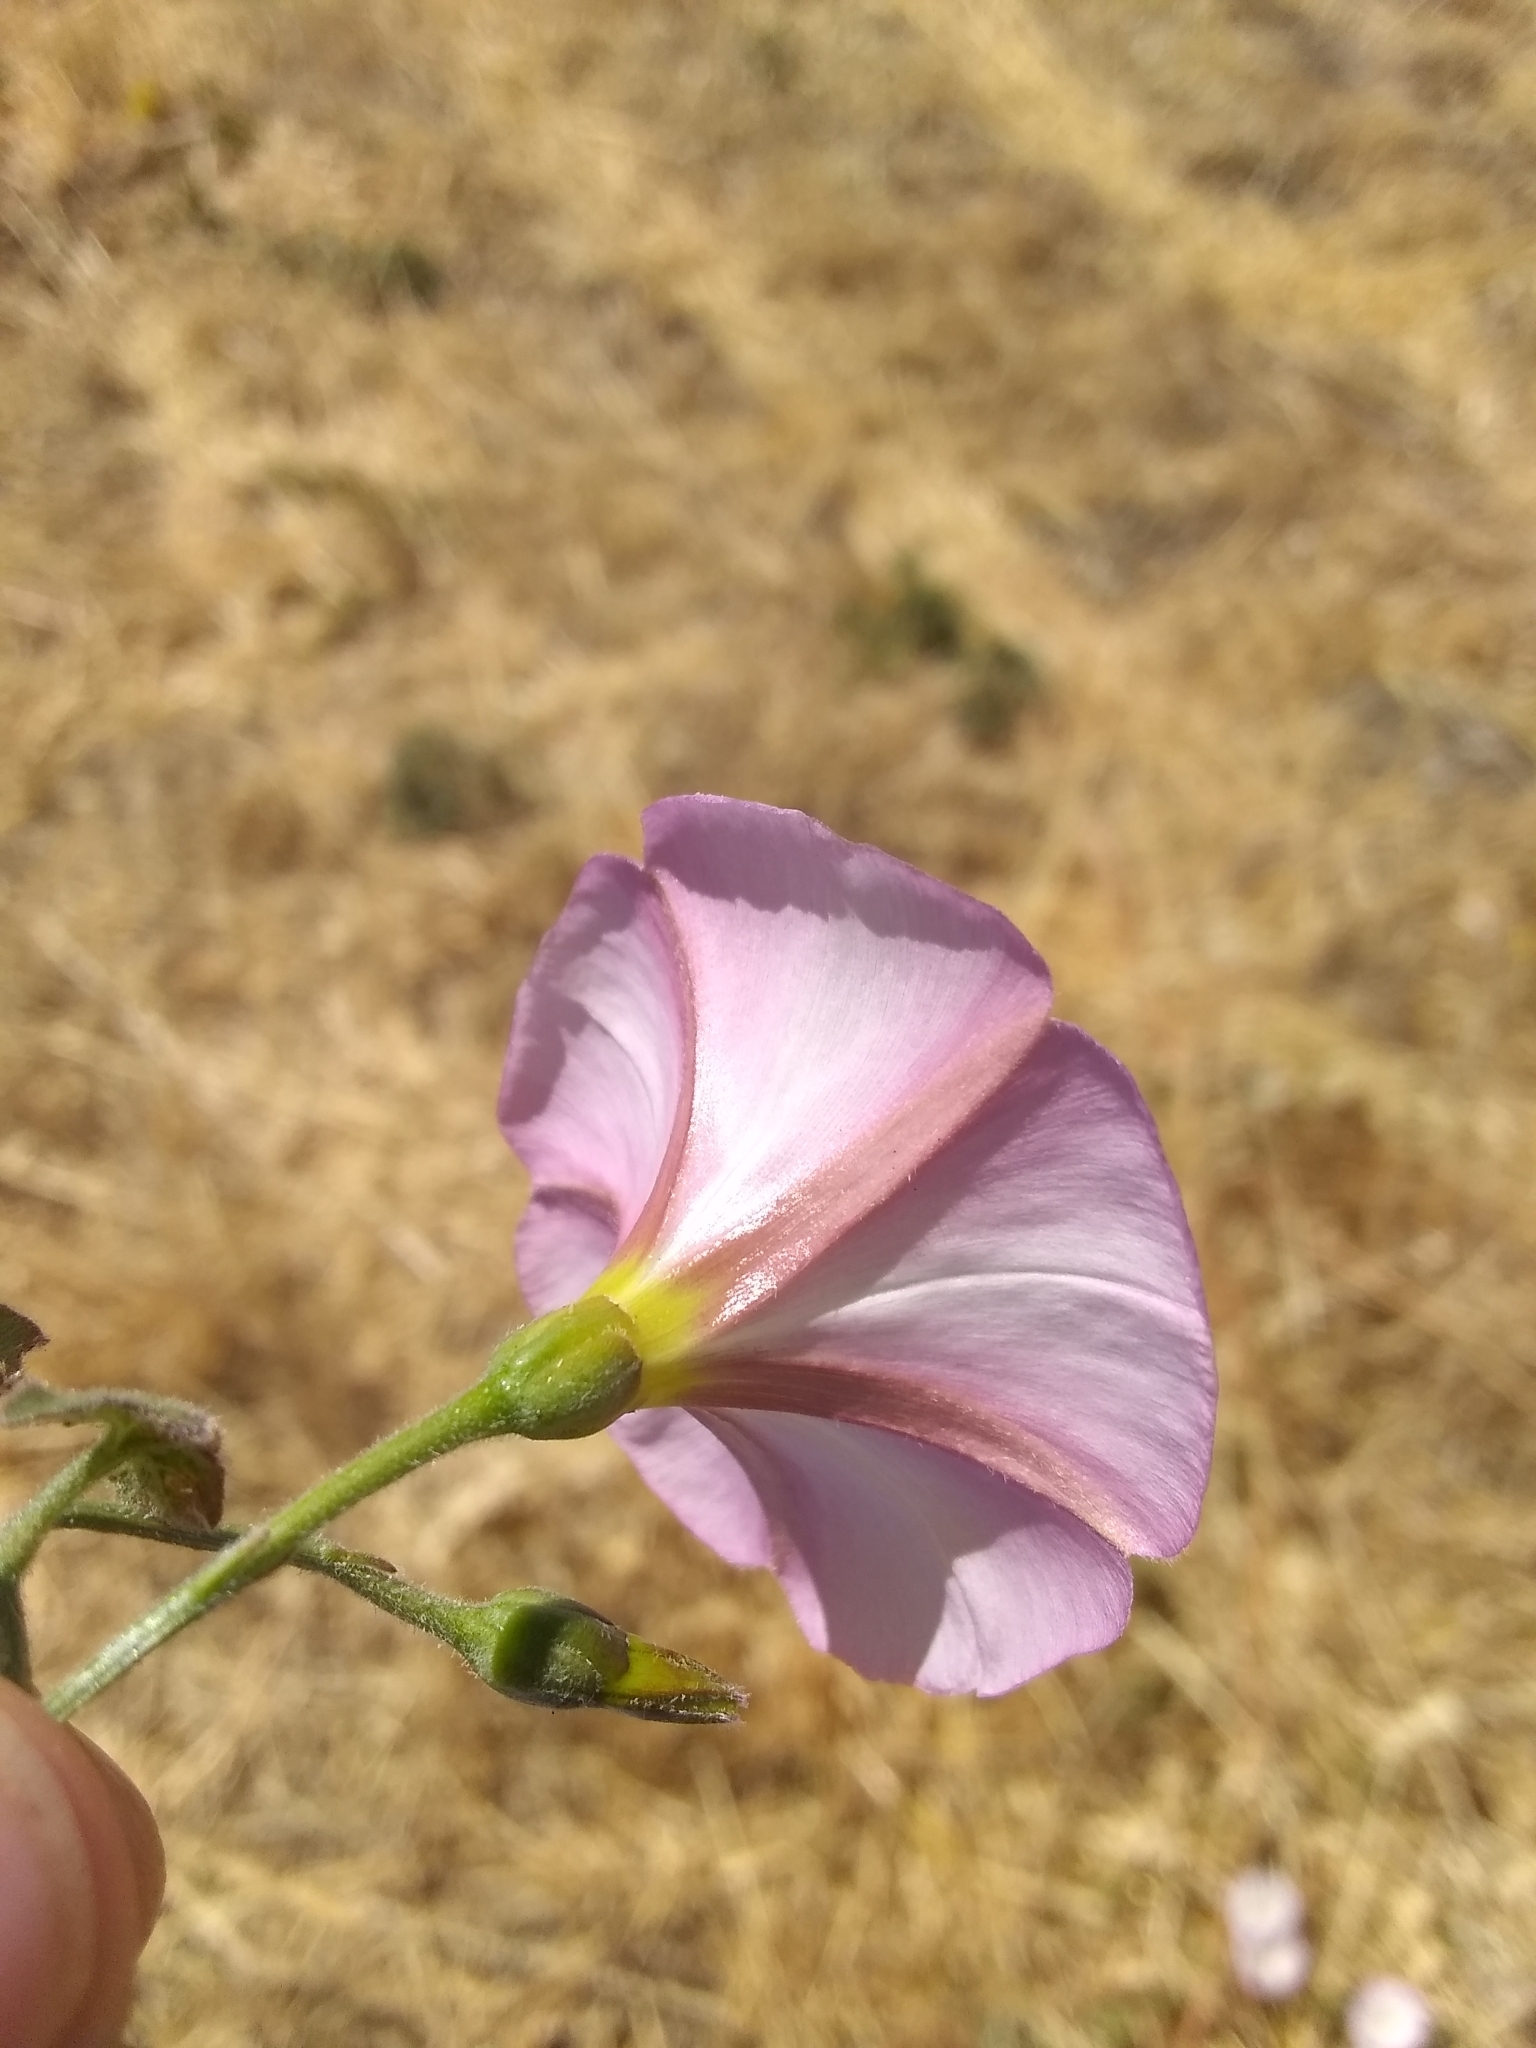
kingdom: Plantae
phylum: Tracheophyta
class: Magnoliopsida
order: Solanales
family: Convolvulaceae
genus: Convolvulus
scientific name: Convolvulus arvensis
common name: Field bindweed
